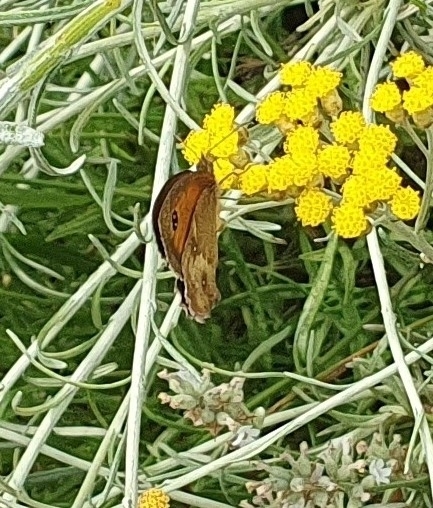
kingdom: Animalia
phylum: Arthropoda
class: Insecta
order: Lepidoptera
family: Nymphalidae
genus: Pyronia
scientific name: Pyronia tithonus
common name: Gatekeeper
